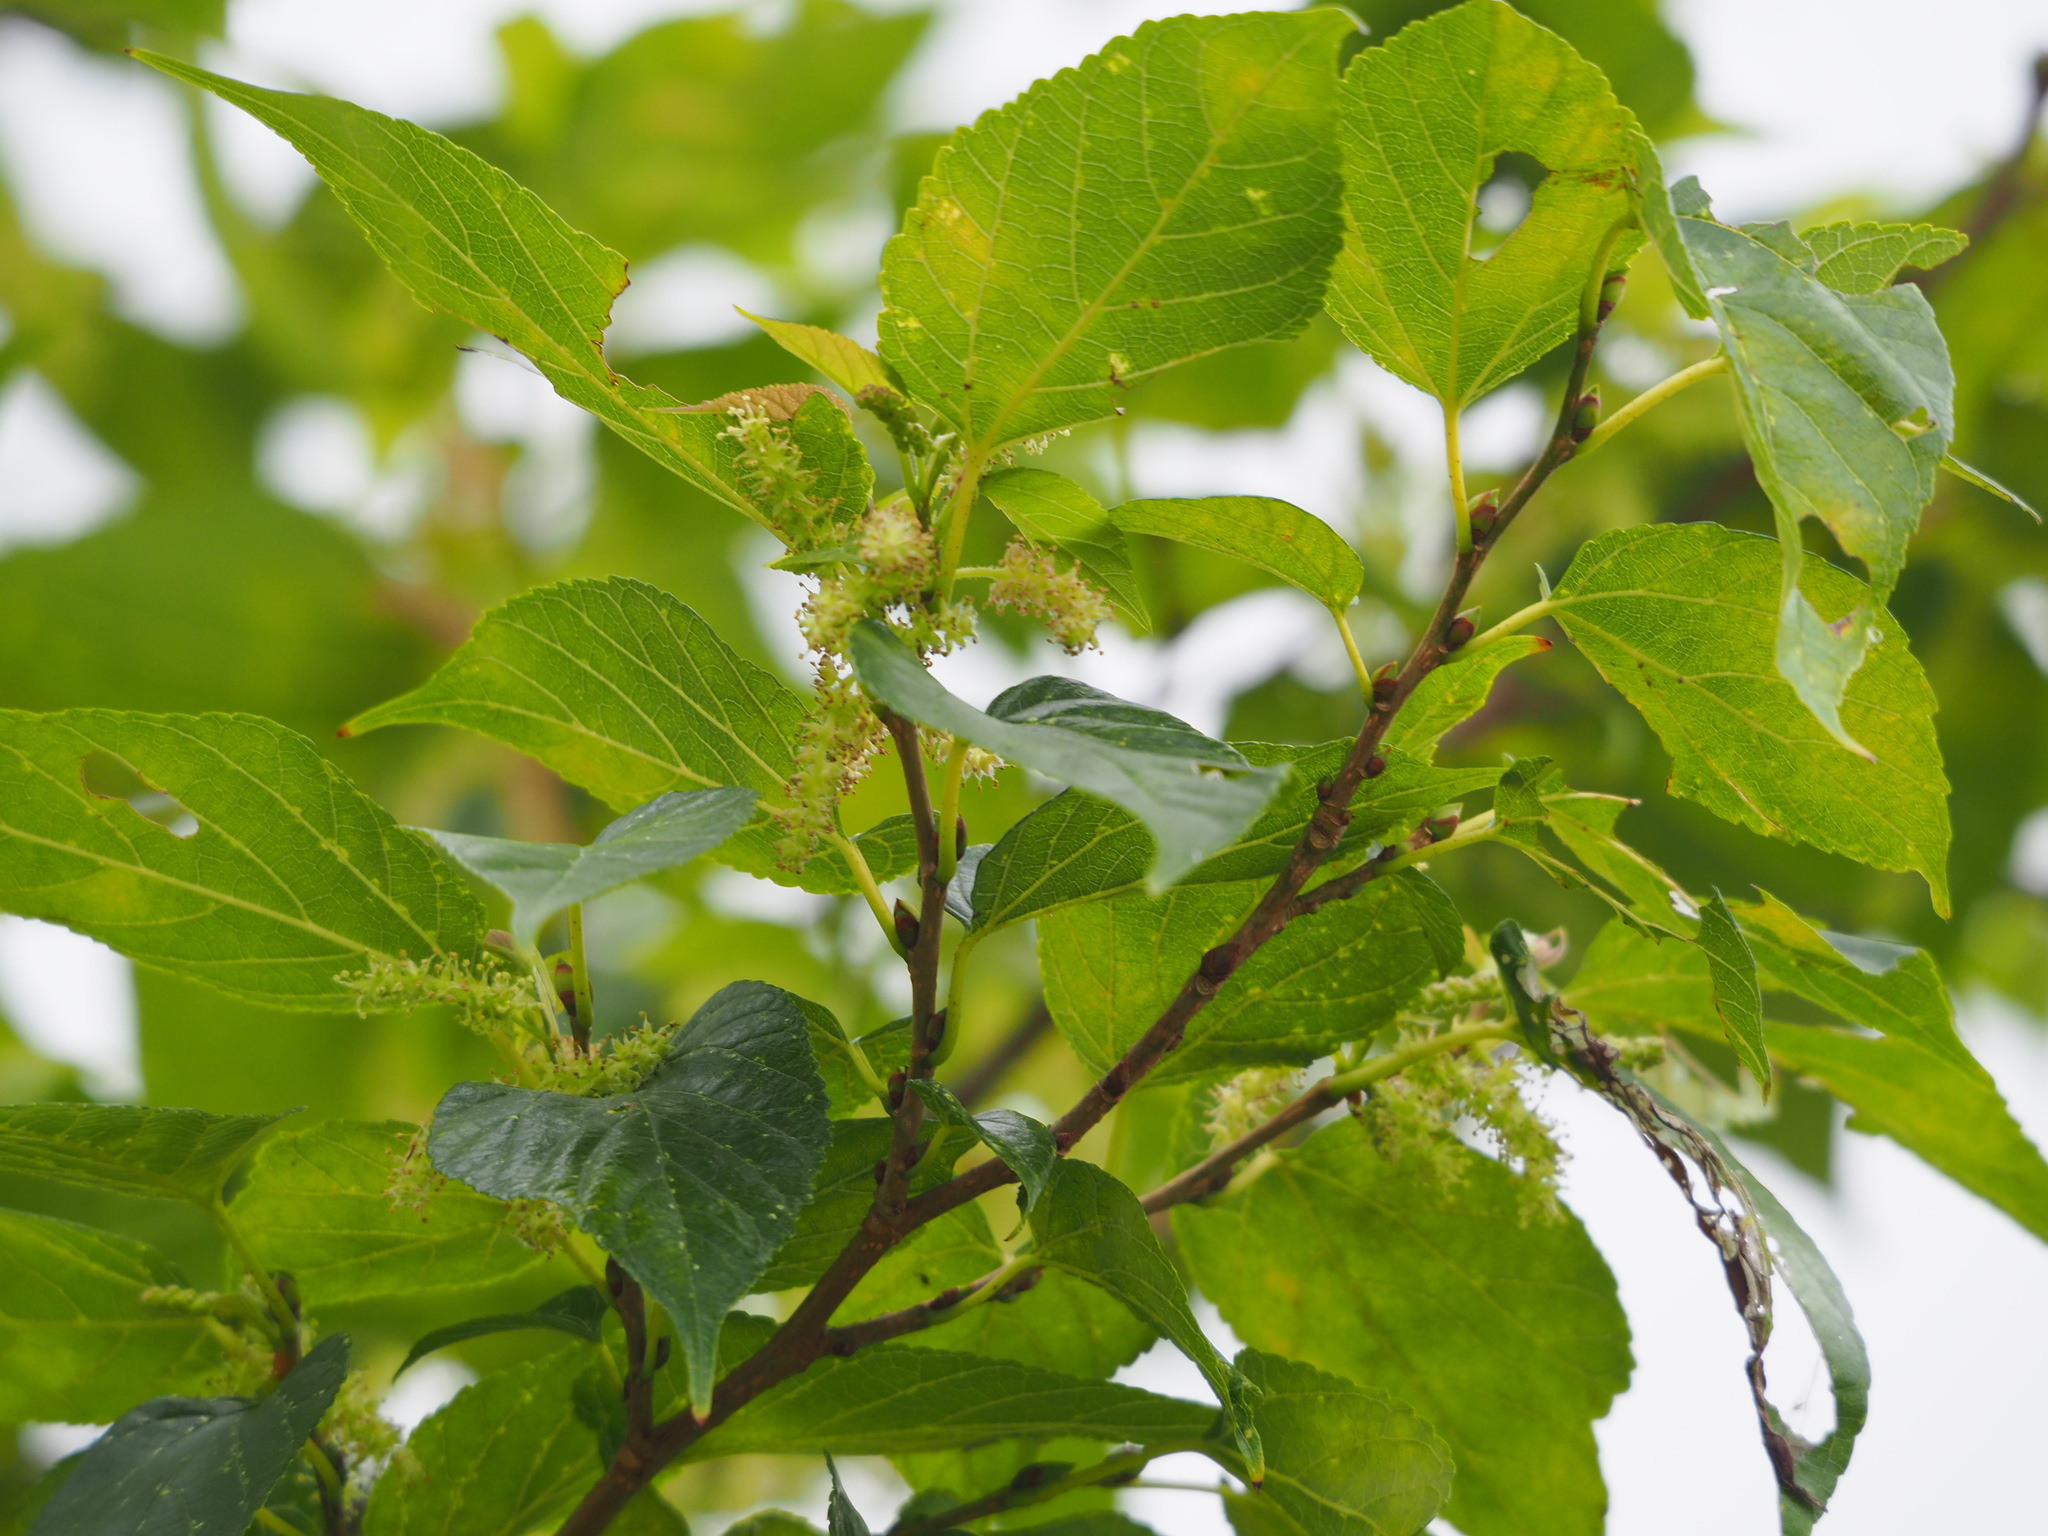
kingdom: Plantae
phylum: Tracheophyta
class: Magnoliopsida
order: Rosales
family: Moraceae
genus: Morus
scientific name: Morus indica
